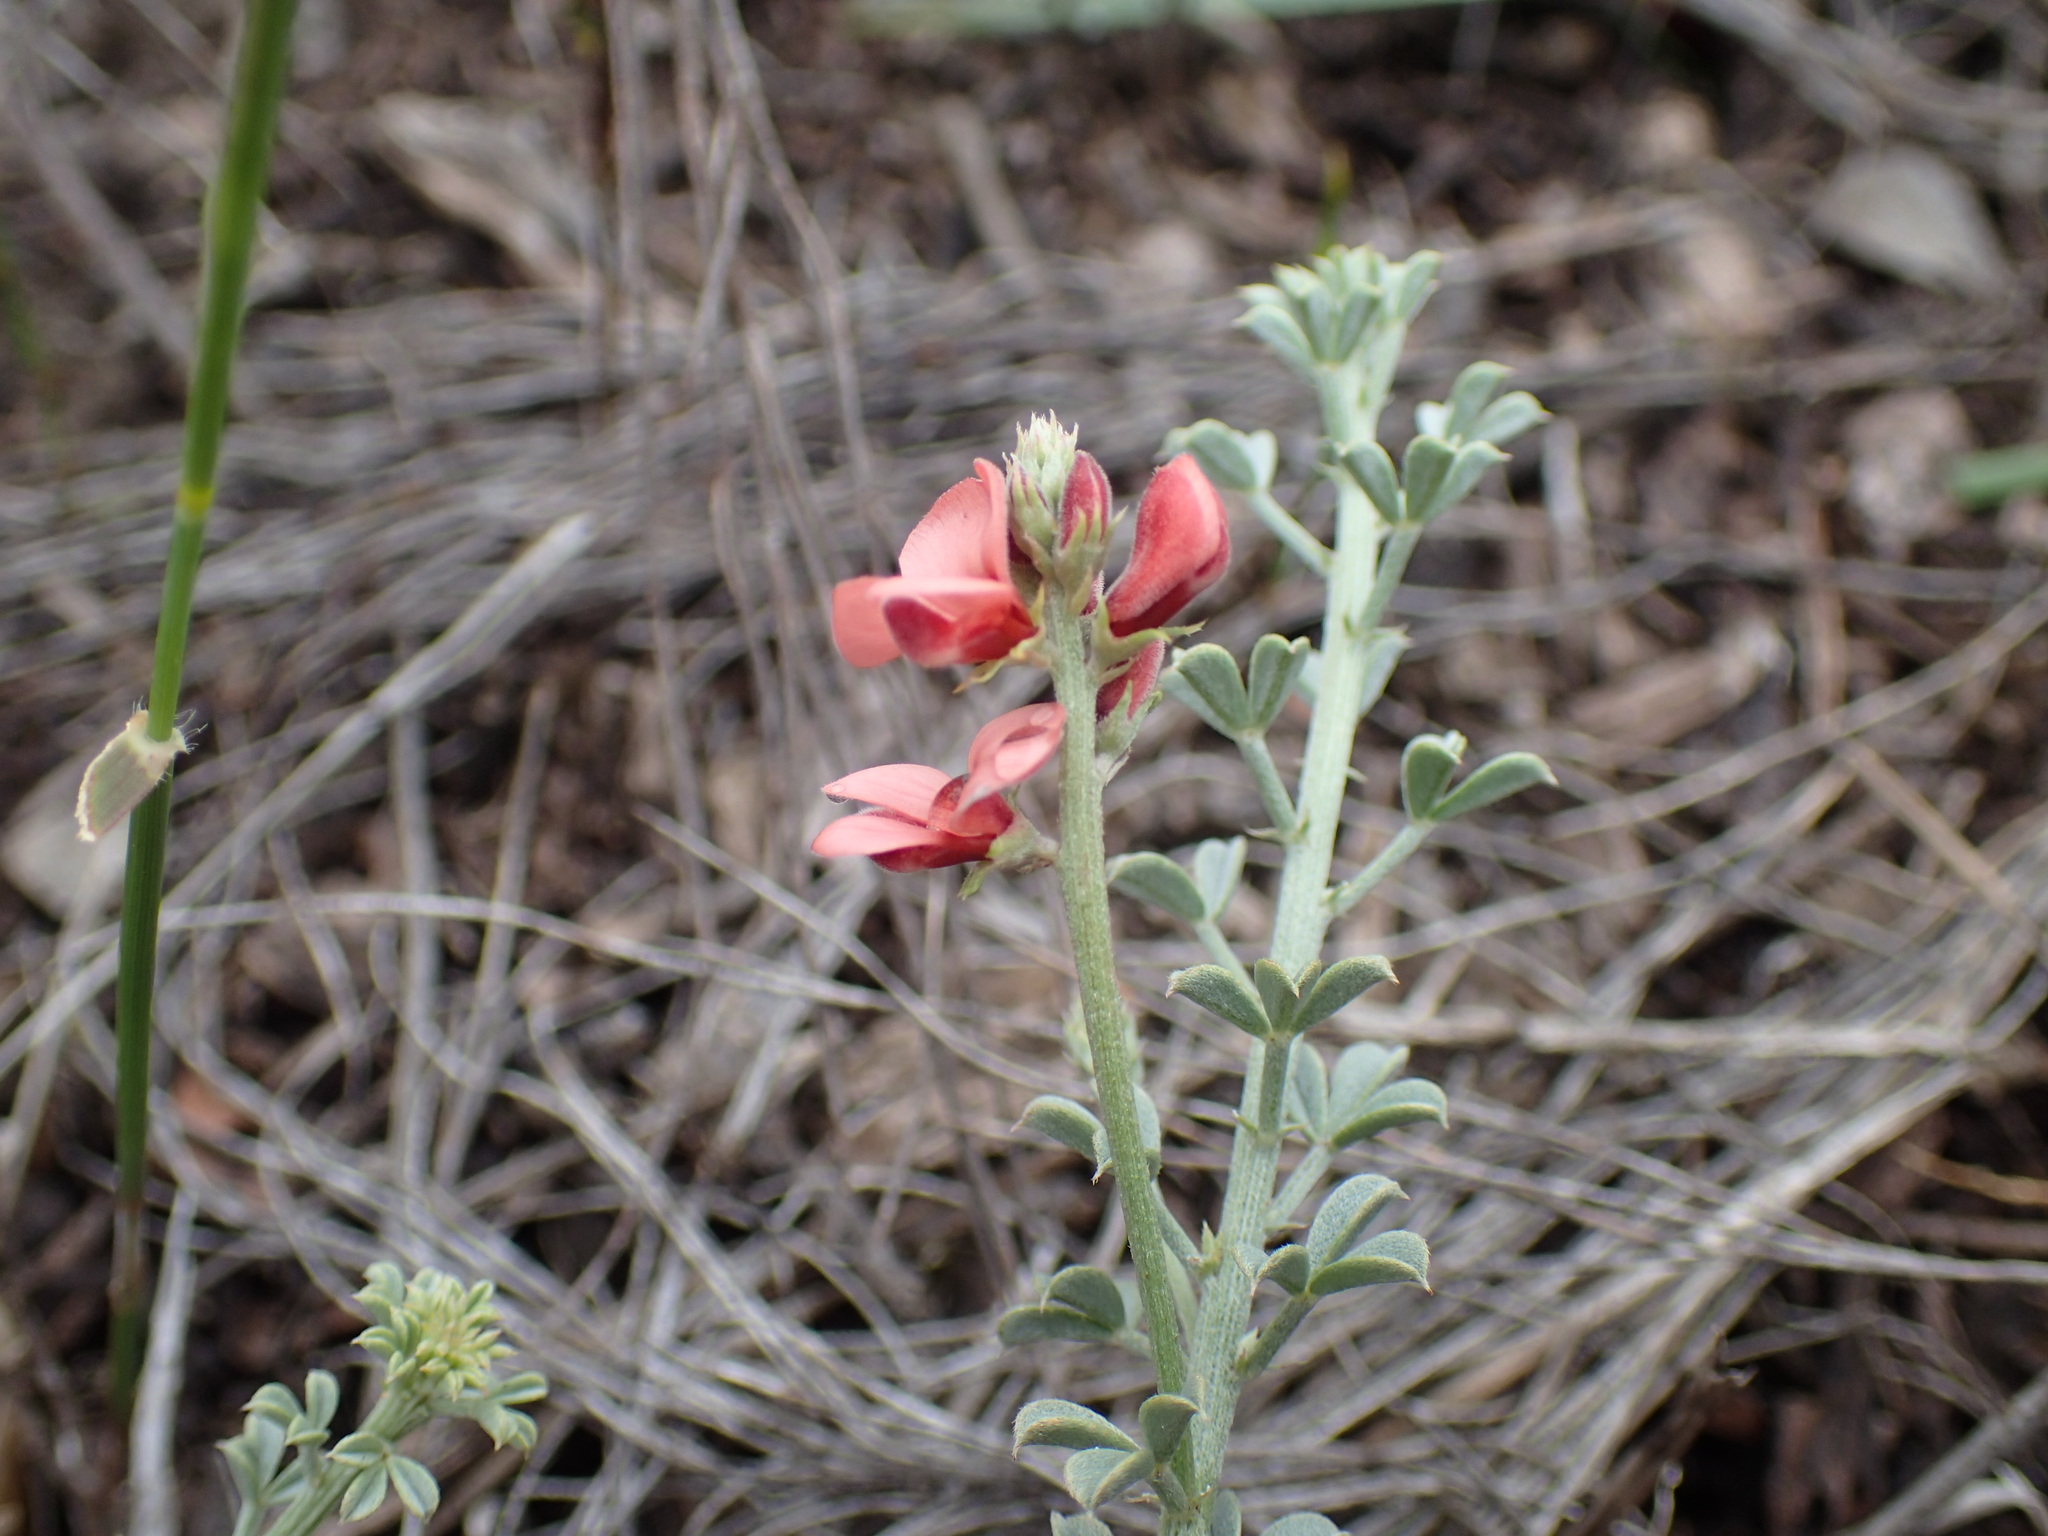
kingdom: Plantae
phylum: Tracheophyta
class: Magnoliopsida
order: Fabales
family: Fabaceae
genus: Indigofera
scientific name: Indigofera porrecta
